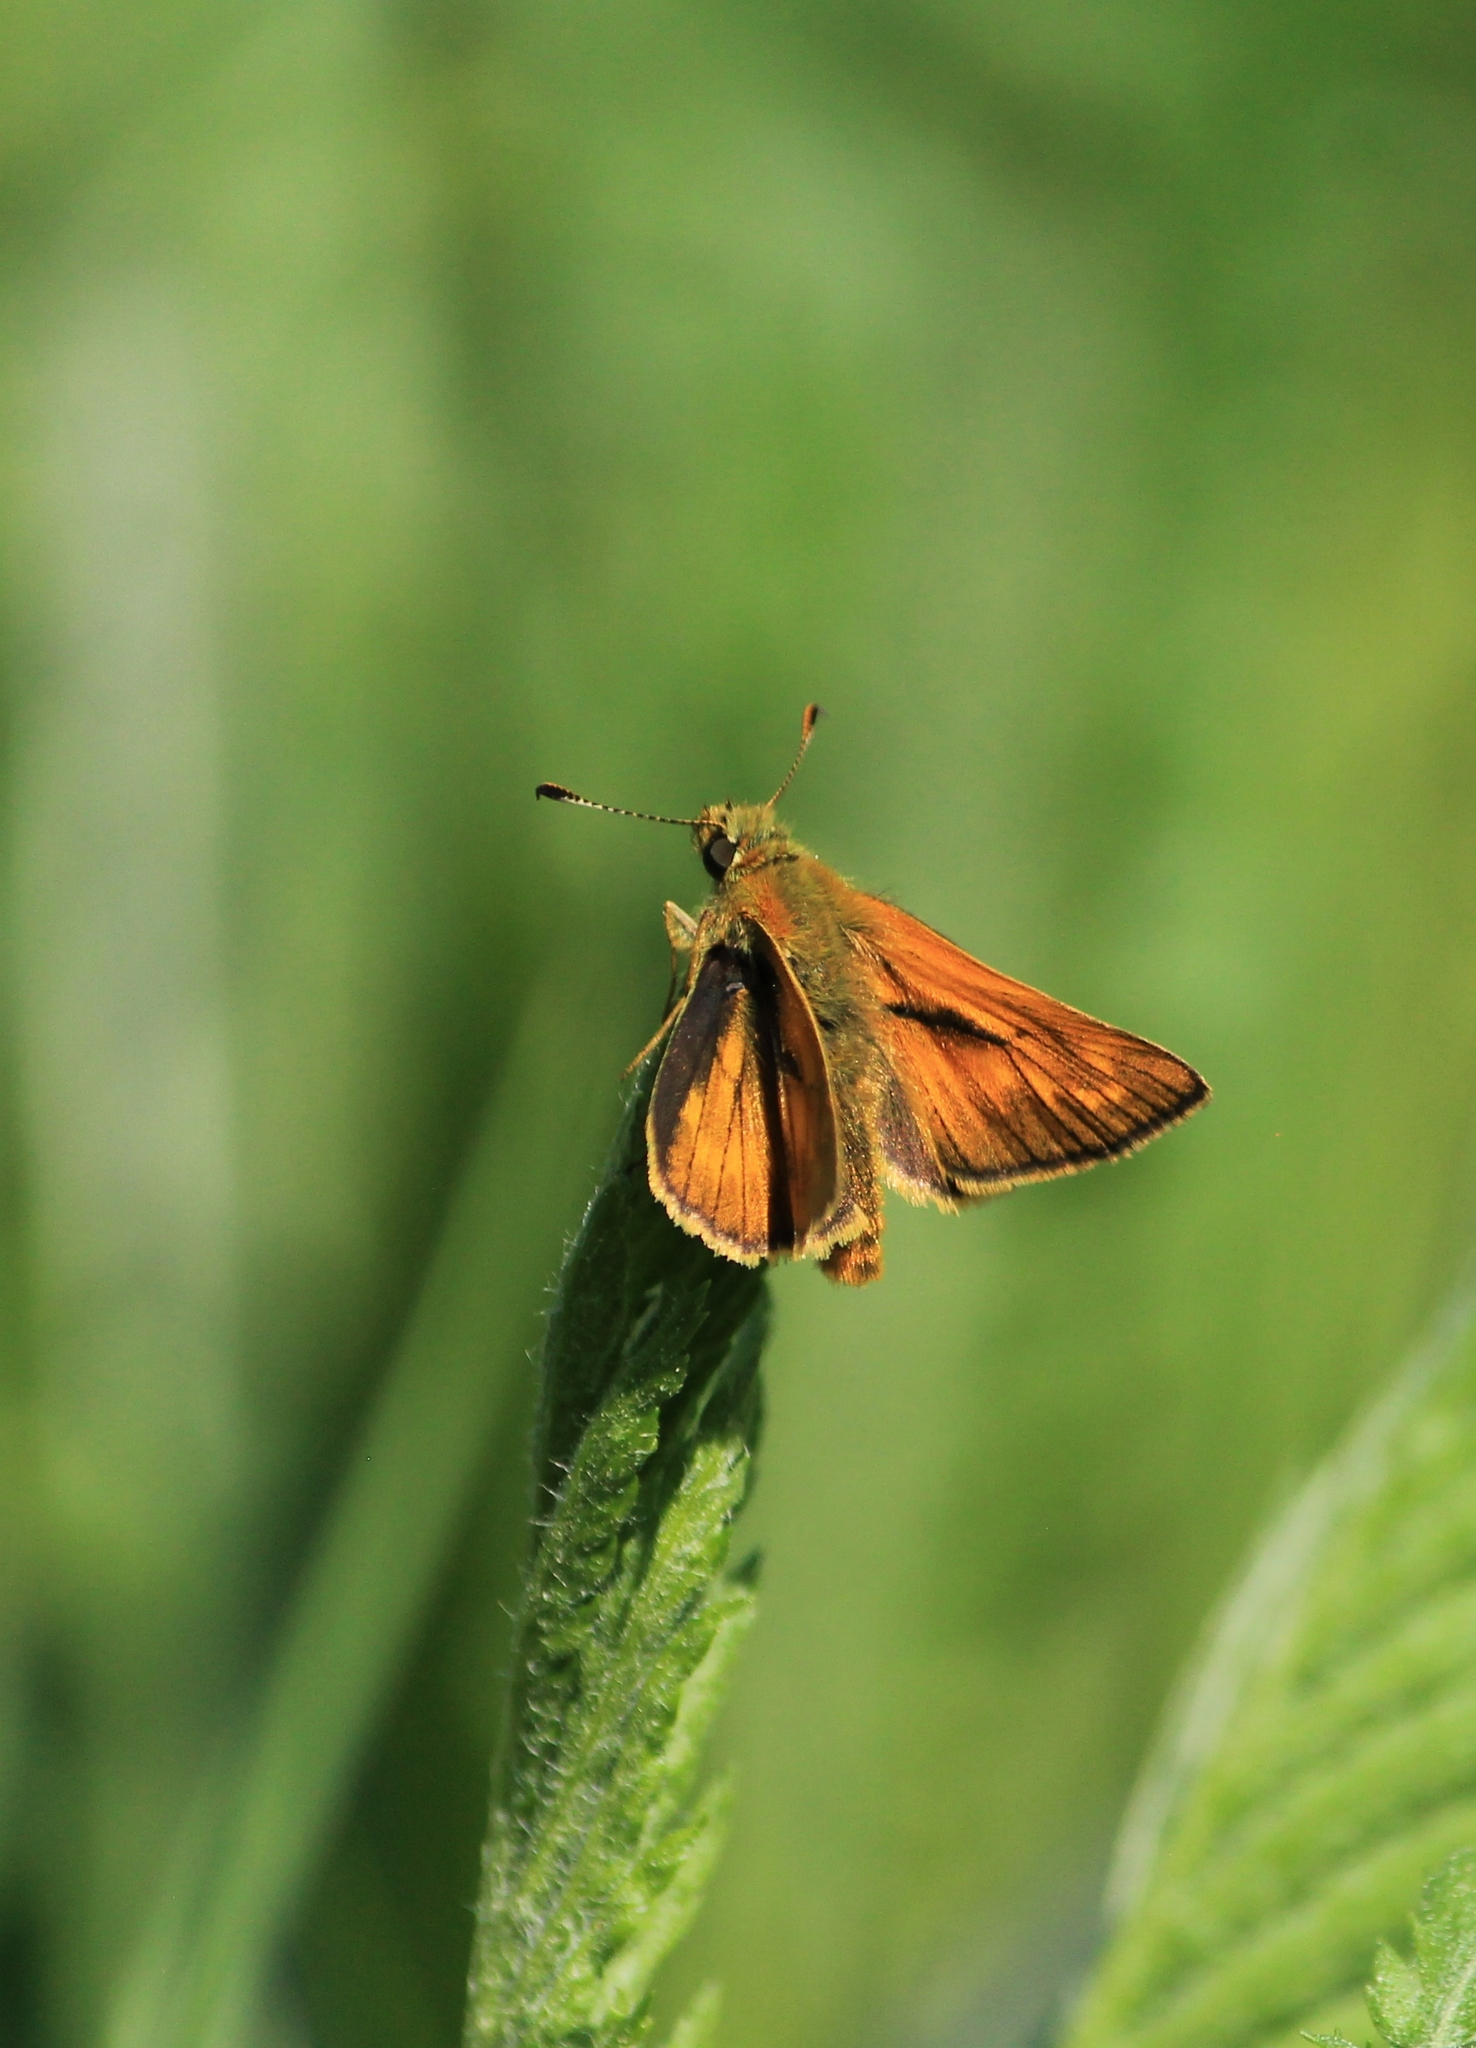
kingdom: Animalia
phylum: Arthropoda
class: Insecta
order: Lepidoptera
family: Hesperiidae
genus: Ochlodes
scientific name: Ochlodes venata
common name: Large skipper
